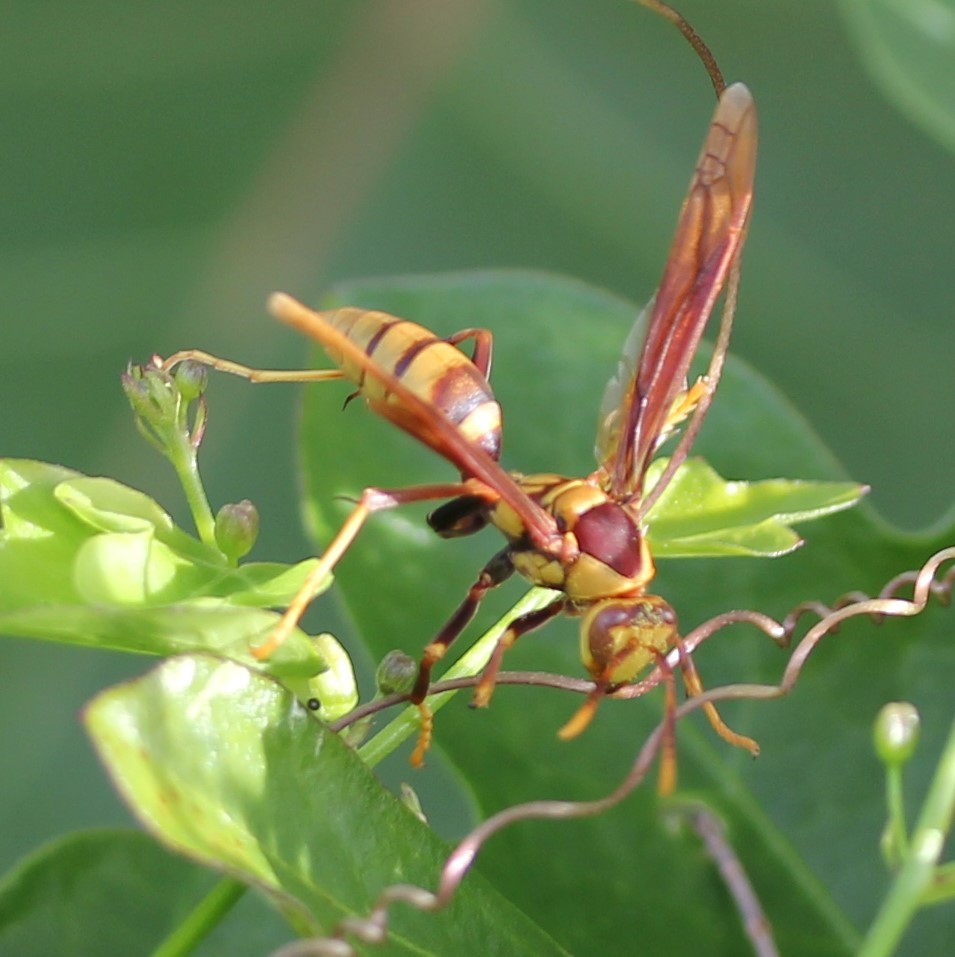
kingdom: Animalia
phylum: Arthropoda
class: Insecta
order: Hymenoptera
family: Eumenidae
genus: Polistes
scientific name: Polistes major
